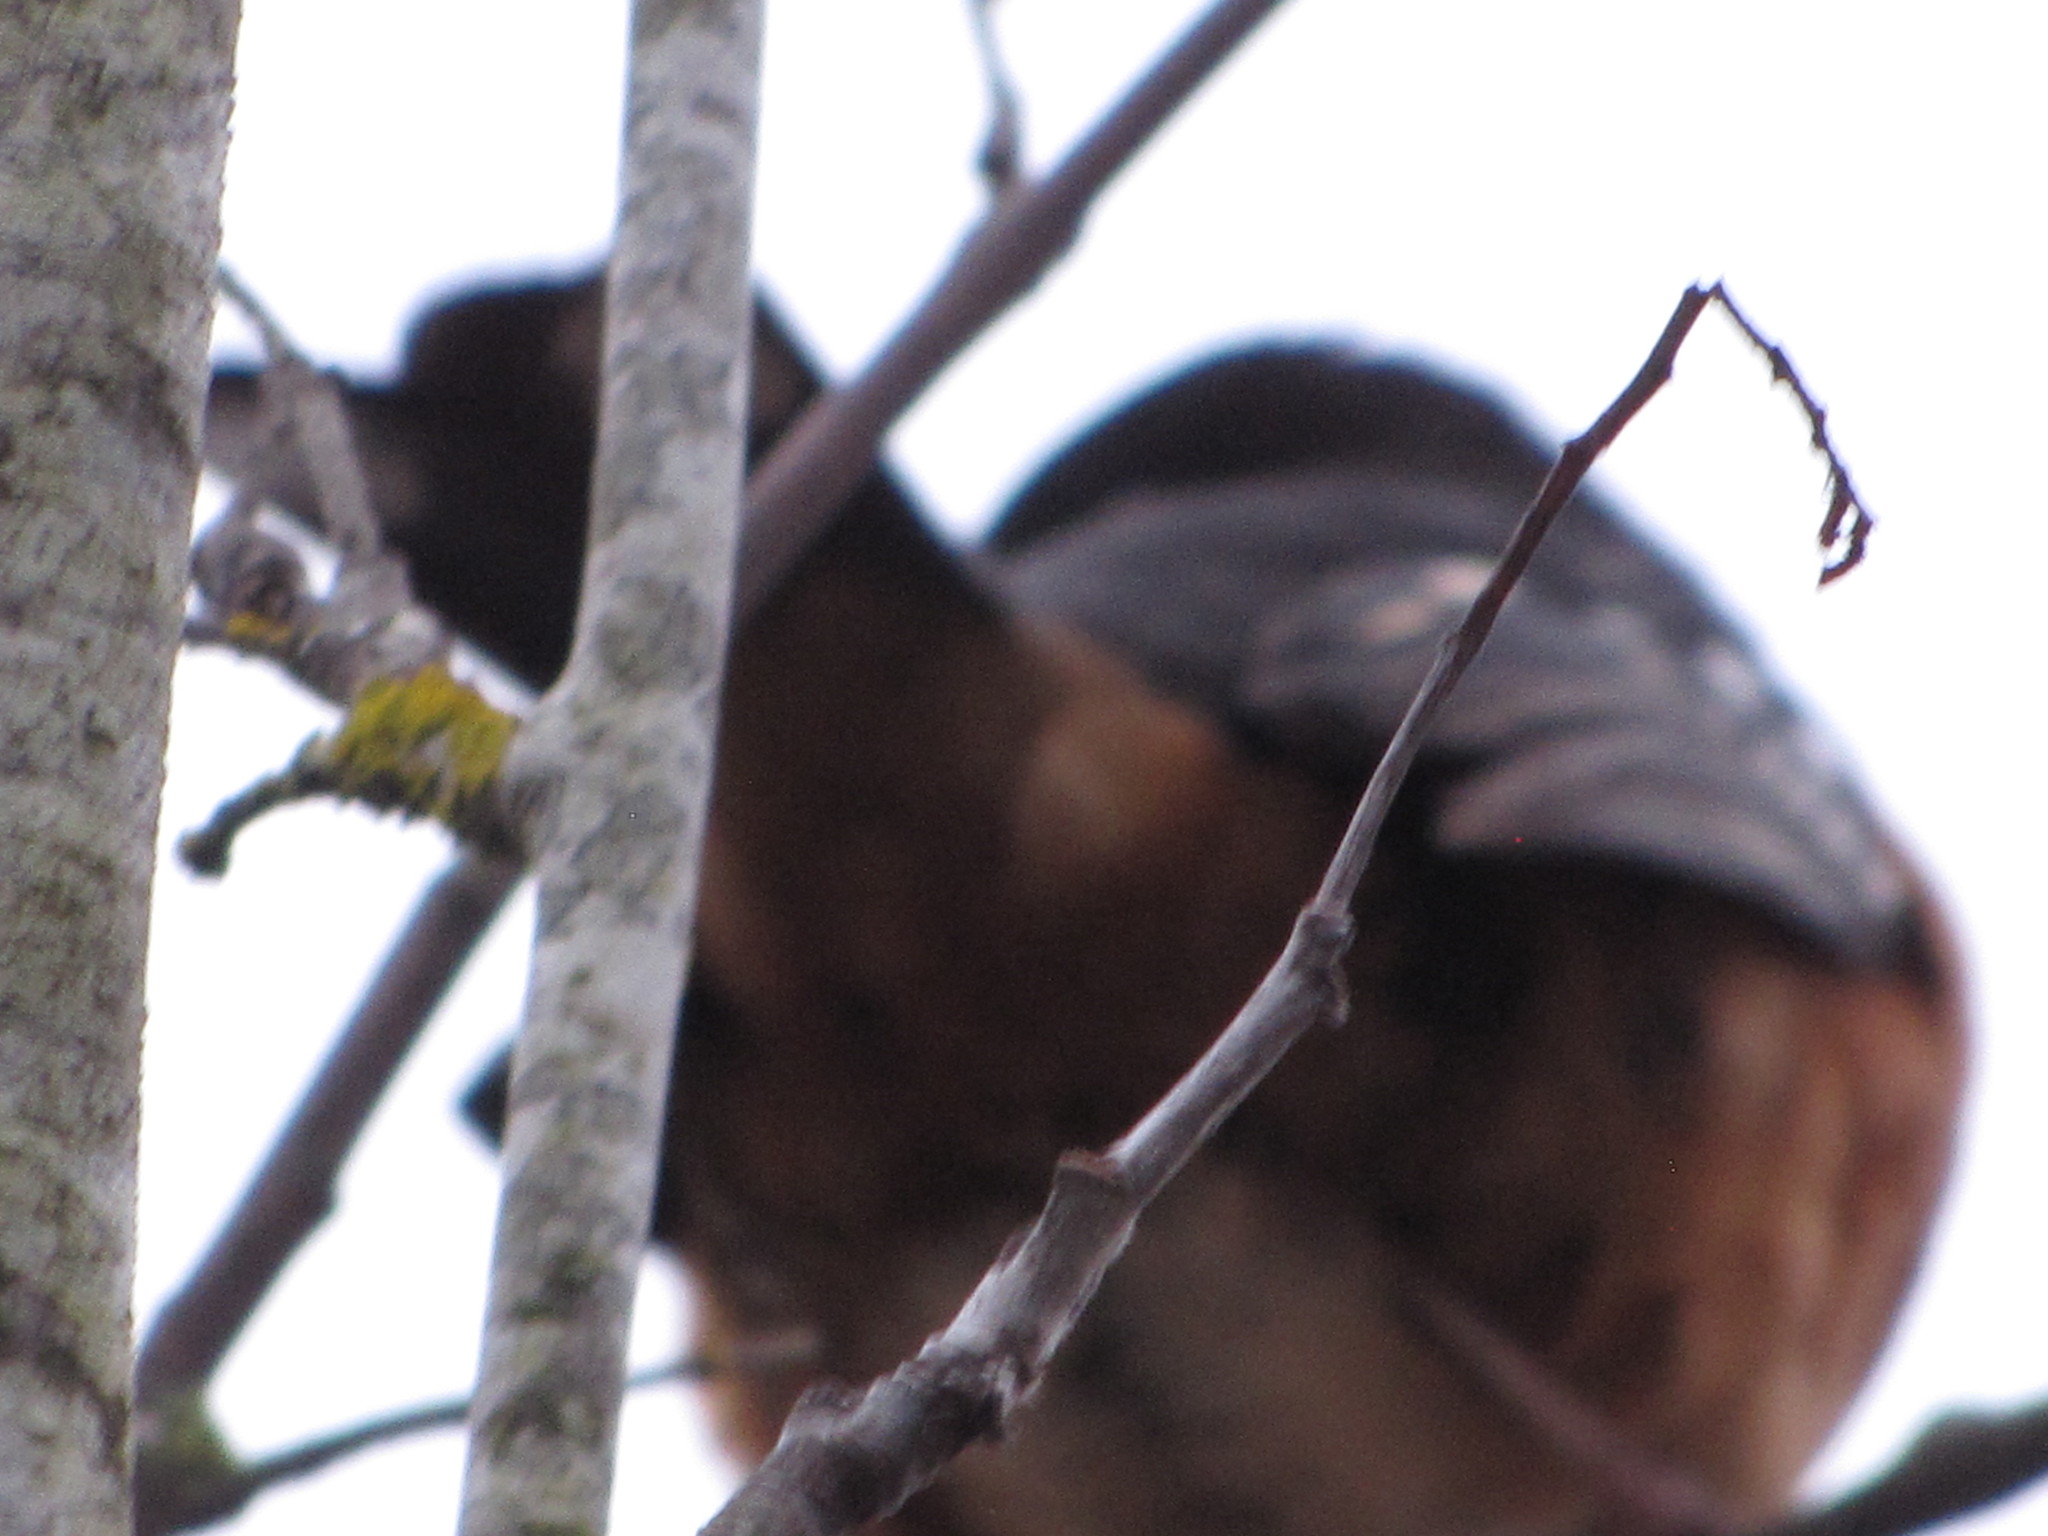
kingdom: Animalia
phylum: Chordata
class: Aves
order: Passeriformes
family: Passerellidae
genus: Pipilo
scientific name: Pipilo maculatus
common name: Spotted towhee
